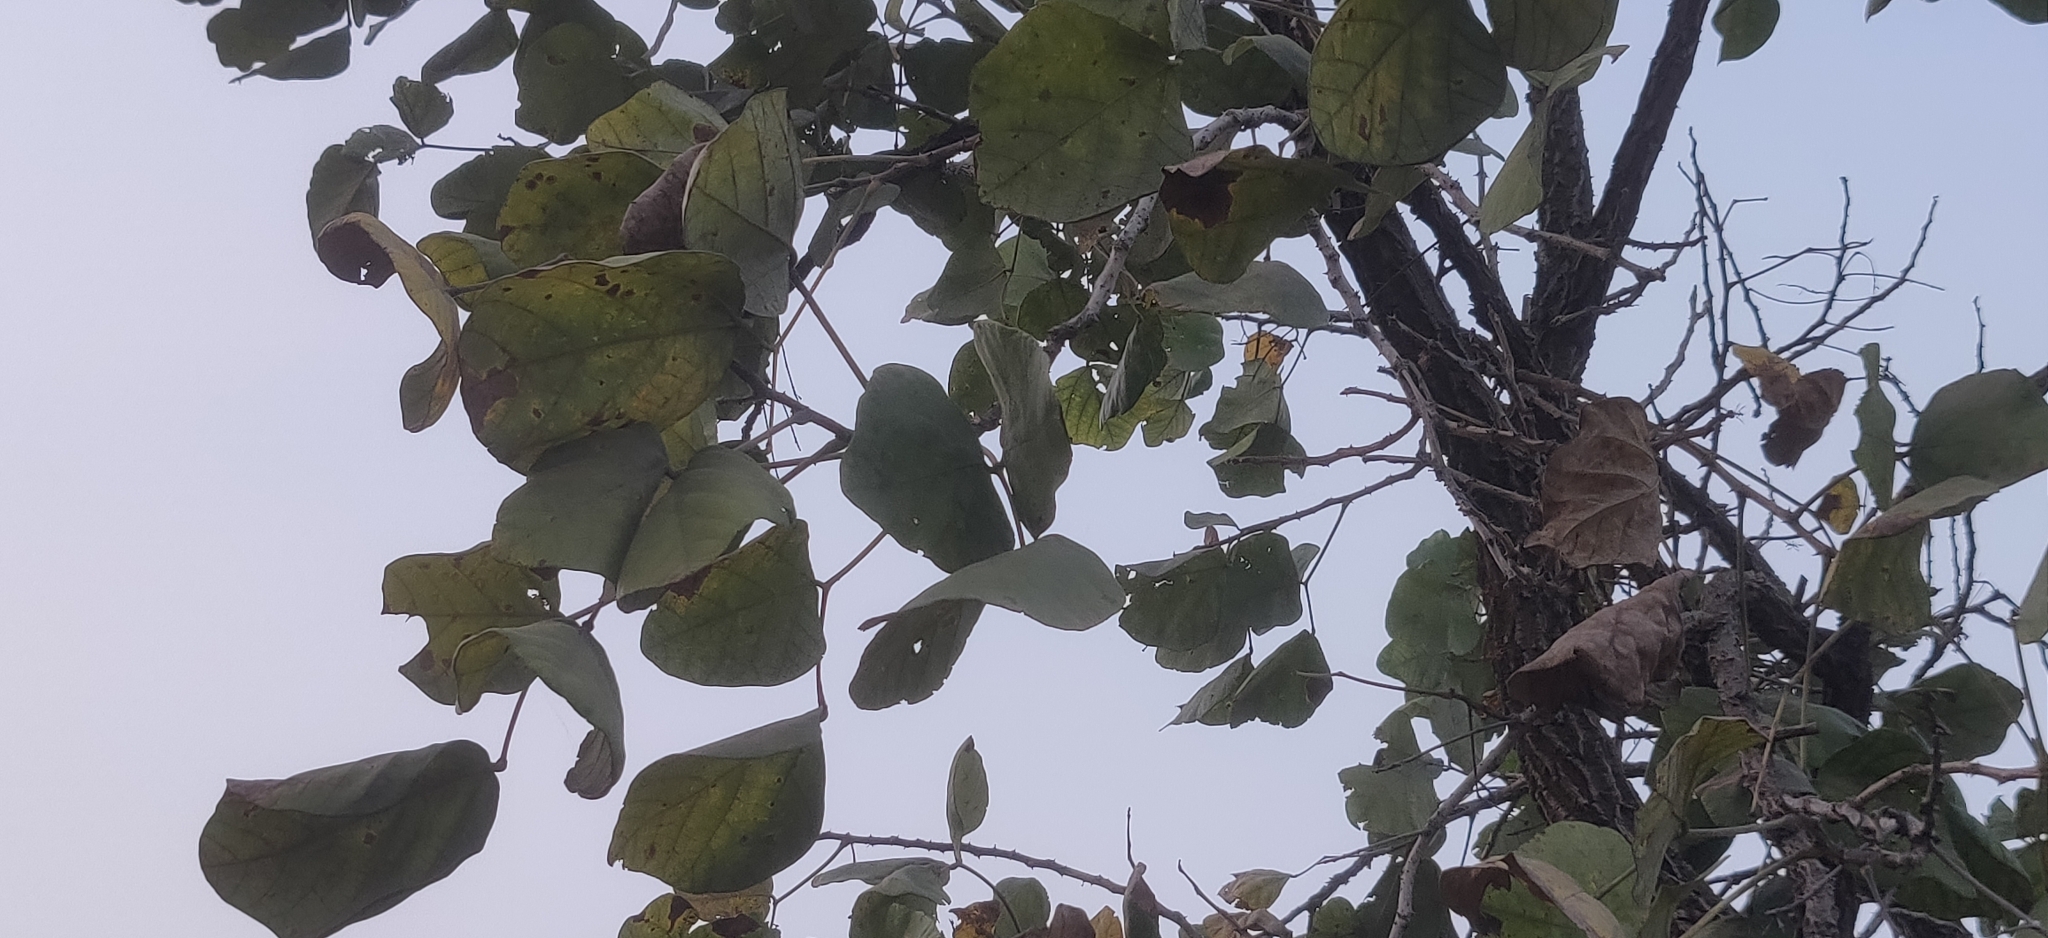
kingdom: Plantae
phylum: Tracheophyta
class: Magnoliopsida
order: Fabales
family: Fabaceae
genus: Butea
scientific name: Butea monosperma
